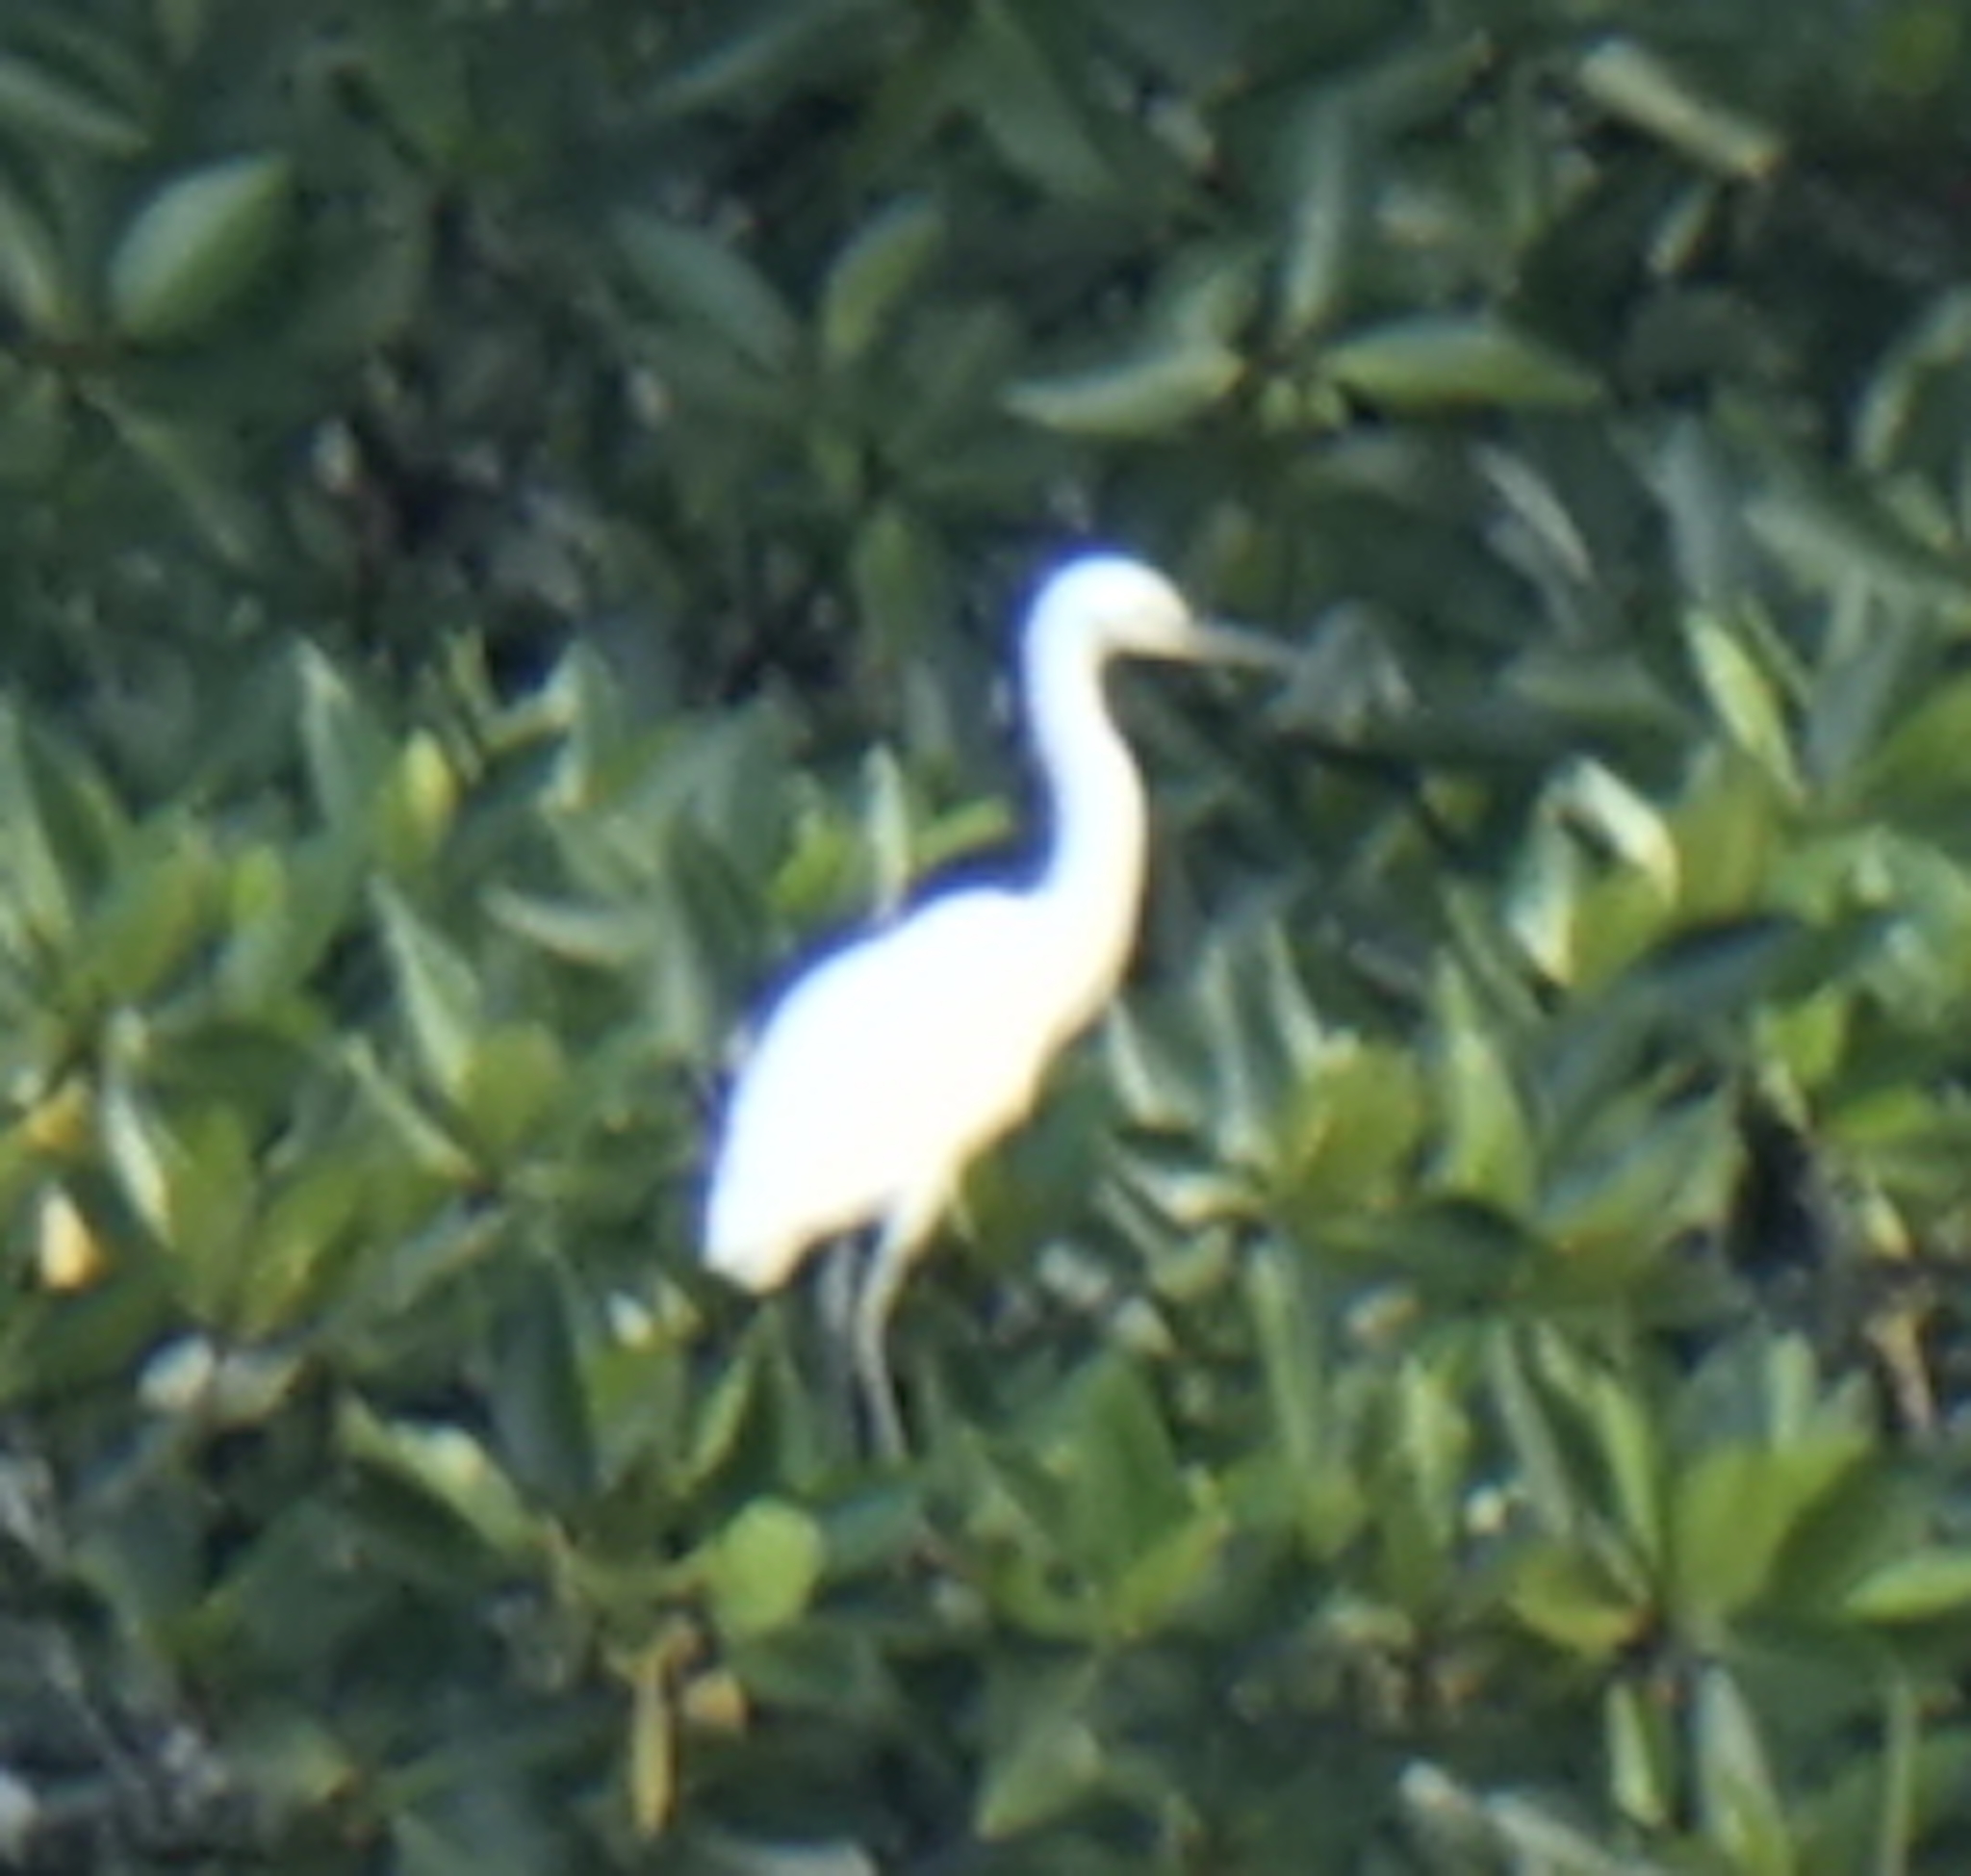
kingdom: Animalia
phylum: Chordata
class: Aves
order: Pelecaniformes
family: Ardeidae
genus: Egretta
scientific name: Egretta garzetta
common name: Little egret
